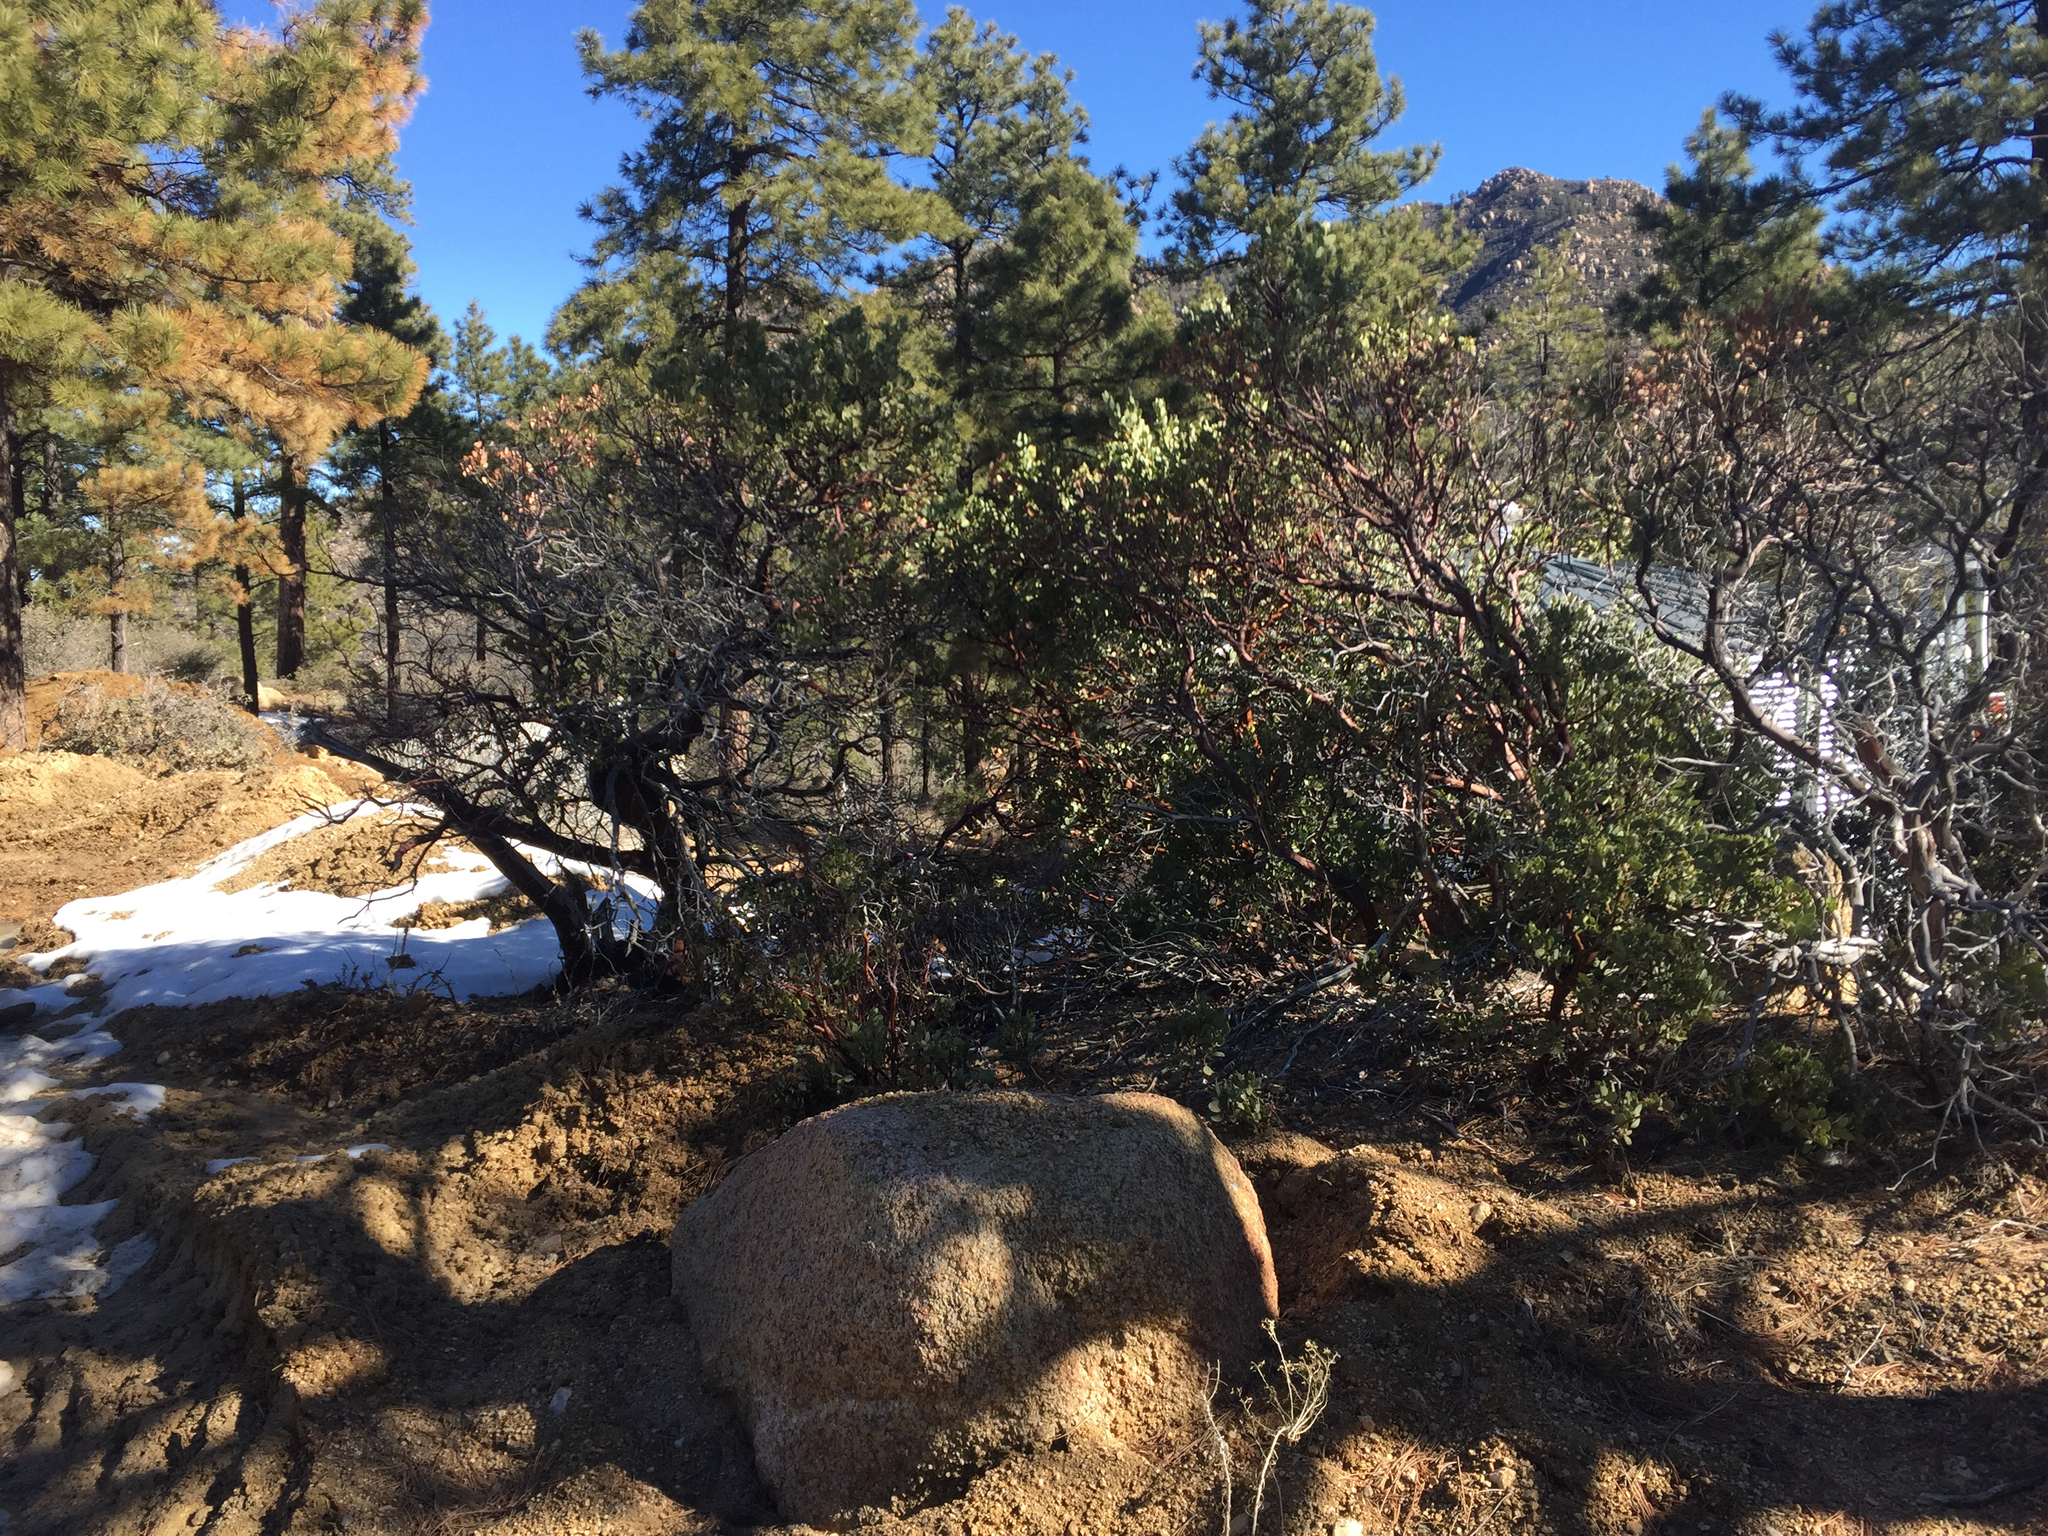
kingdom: Plantae
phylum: Tracheophyta
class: Magnoliopsida
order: Ericales
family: Ericaceae
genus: Arctostaphylos
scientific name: Arctostaphylos pringlei
